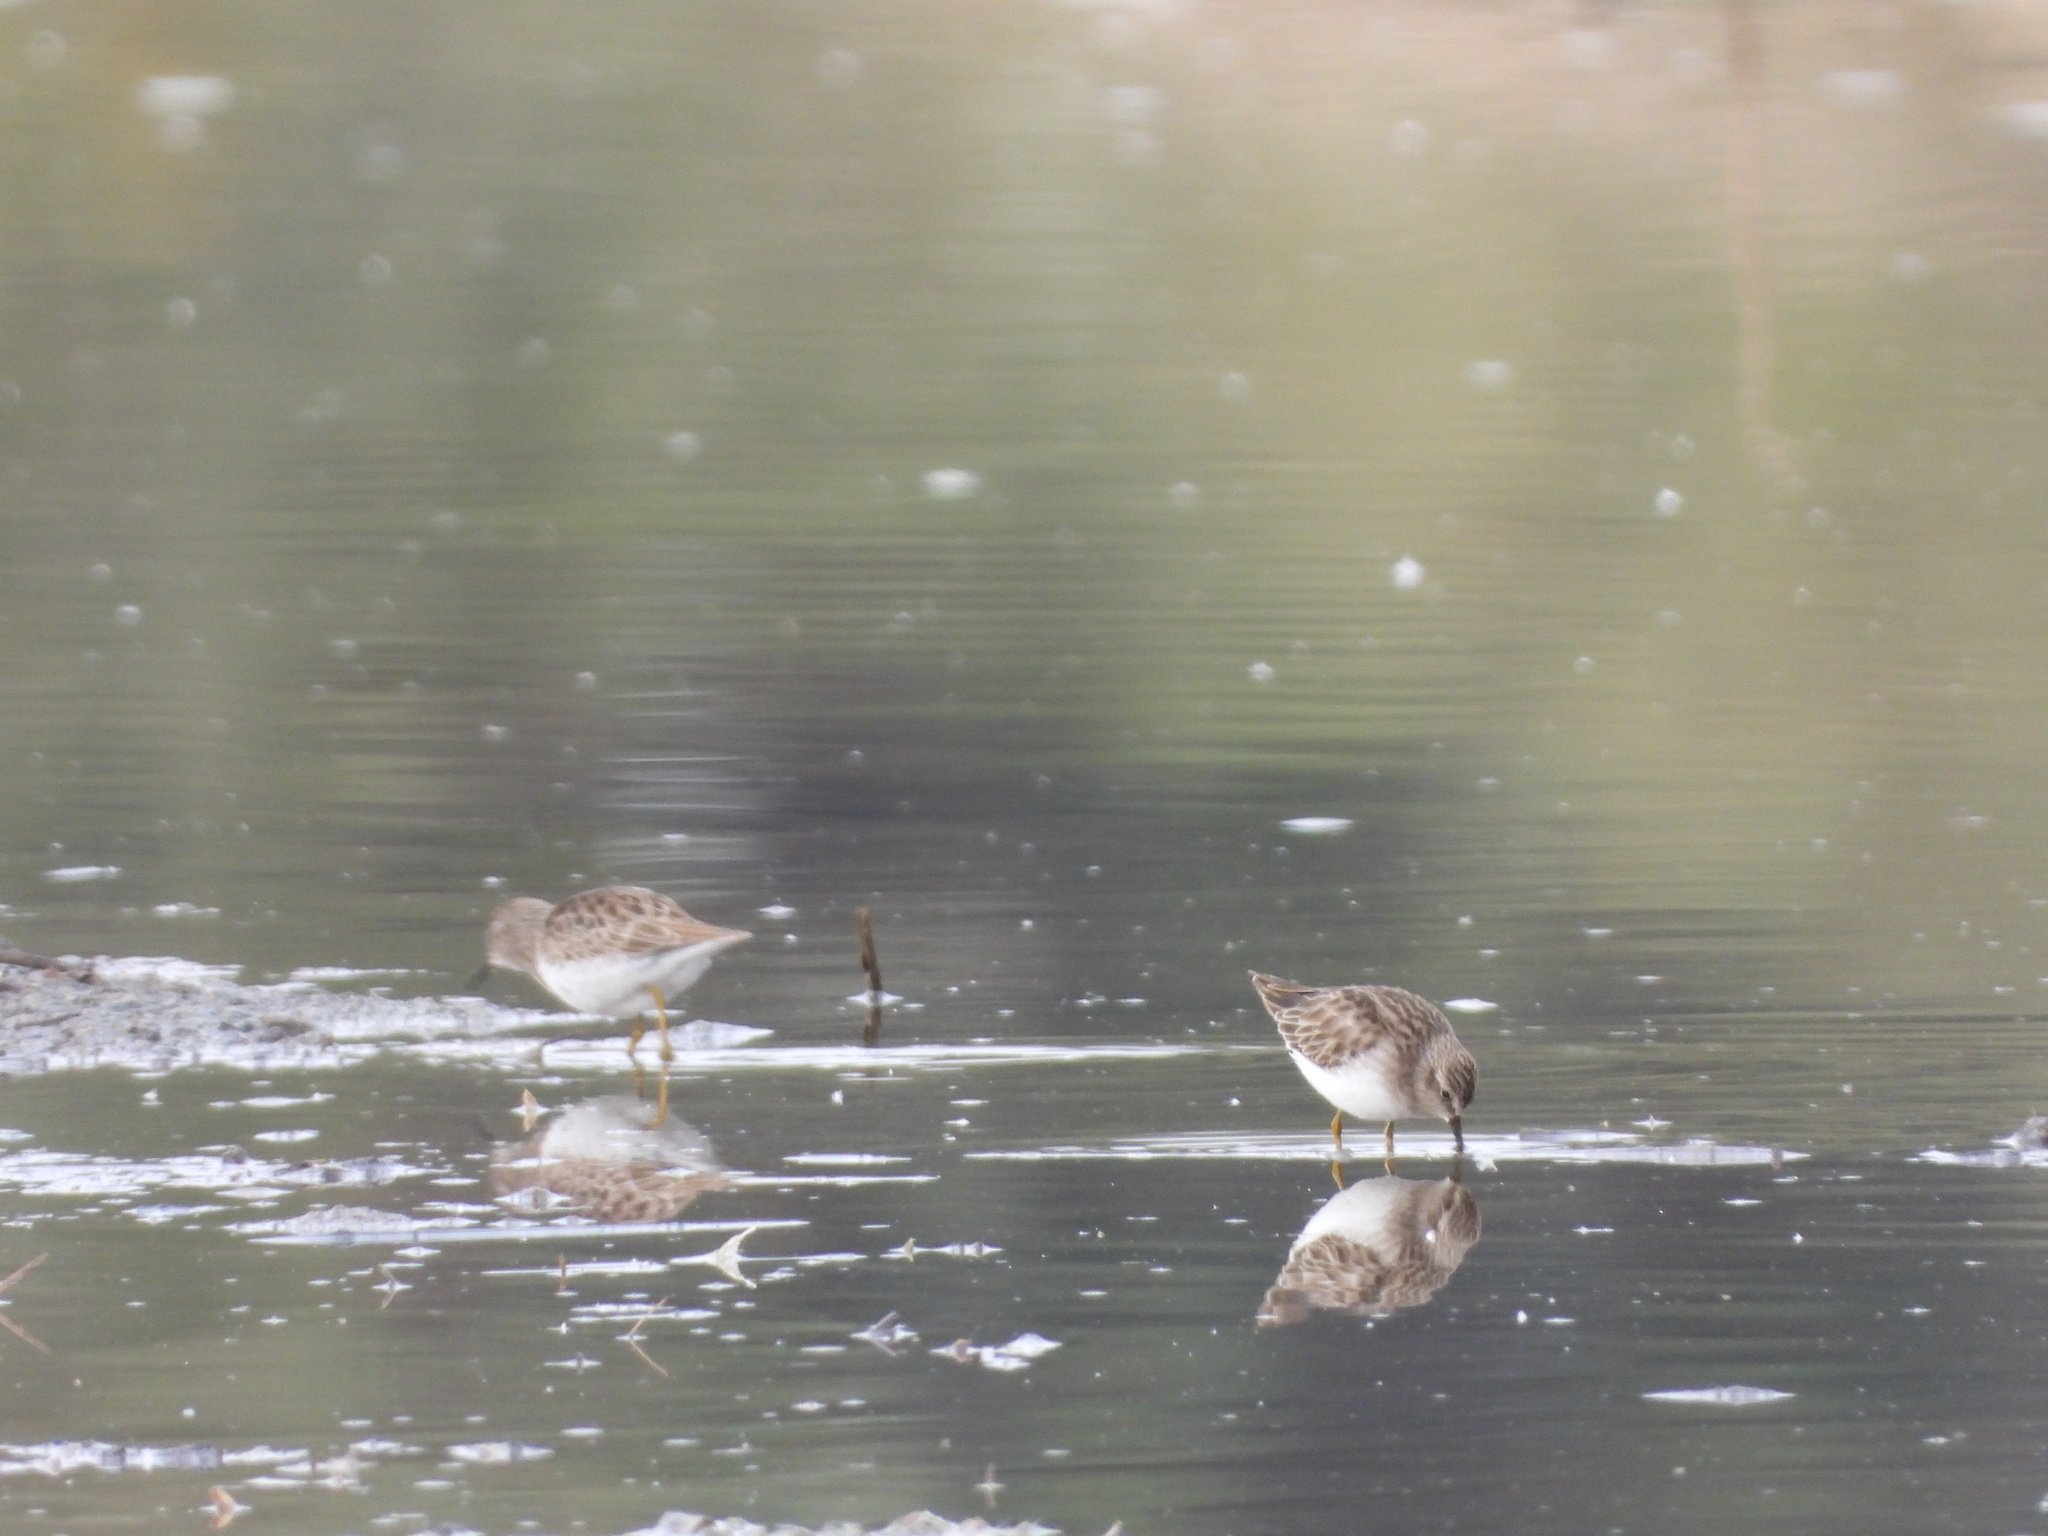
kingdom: Animalia
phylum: Chordata
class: Aves
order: Charadriiformes
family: Scolopacidae
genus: Calidris
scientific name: Calidris minutilla
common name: Least sandpiper
